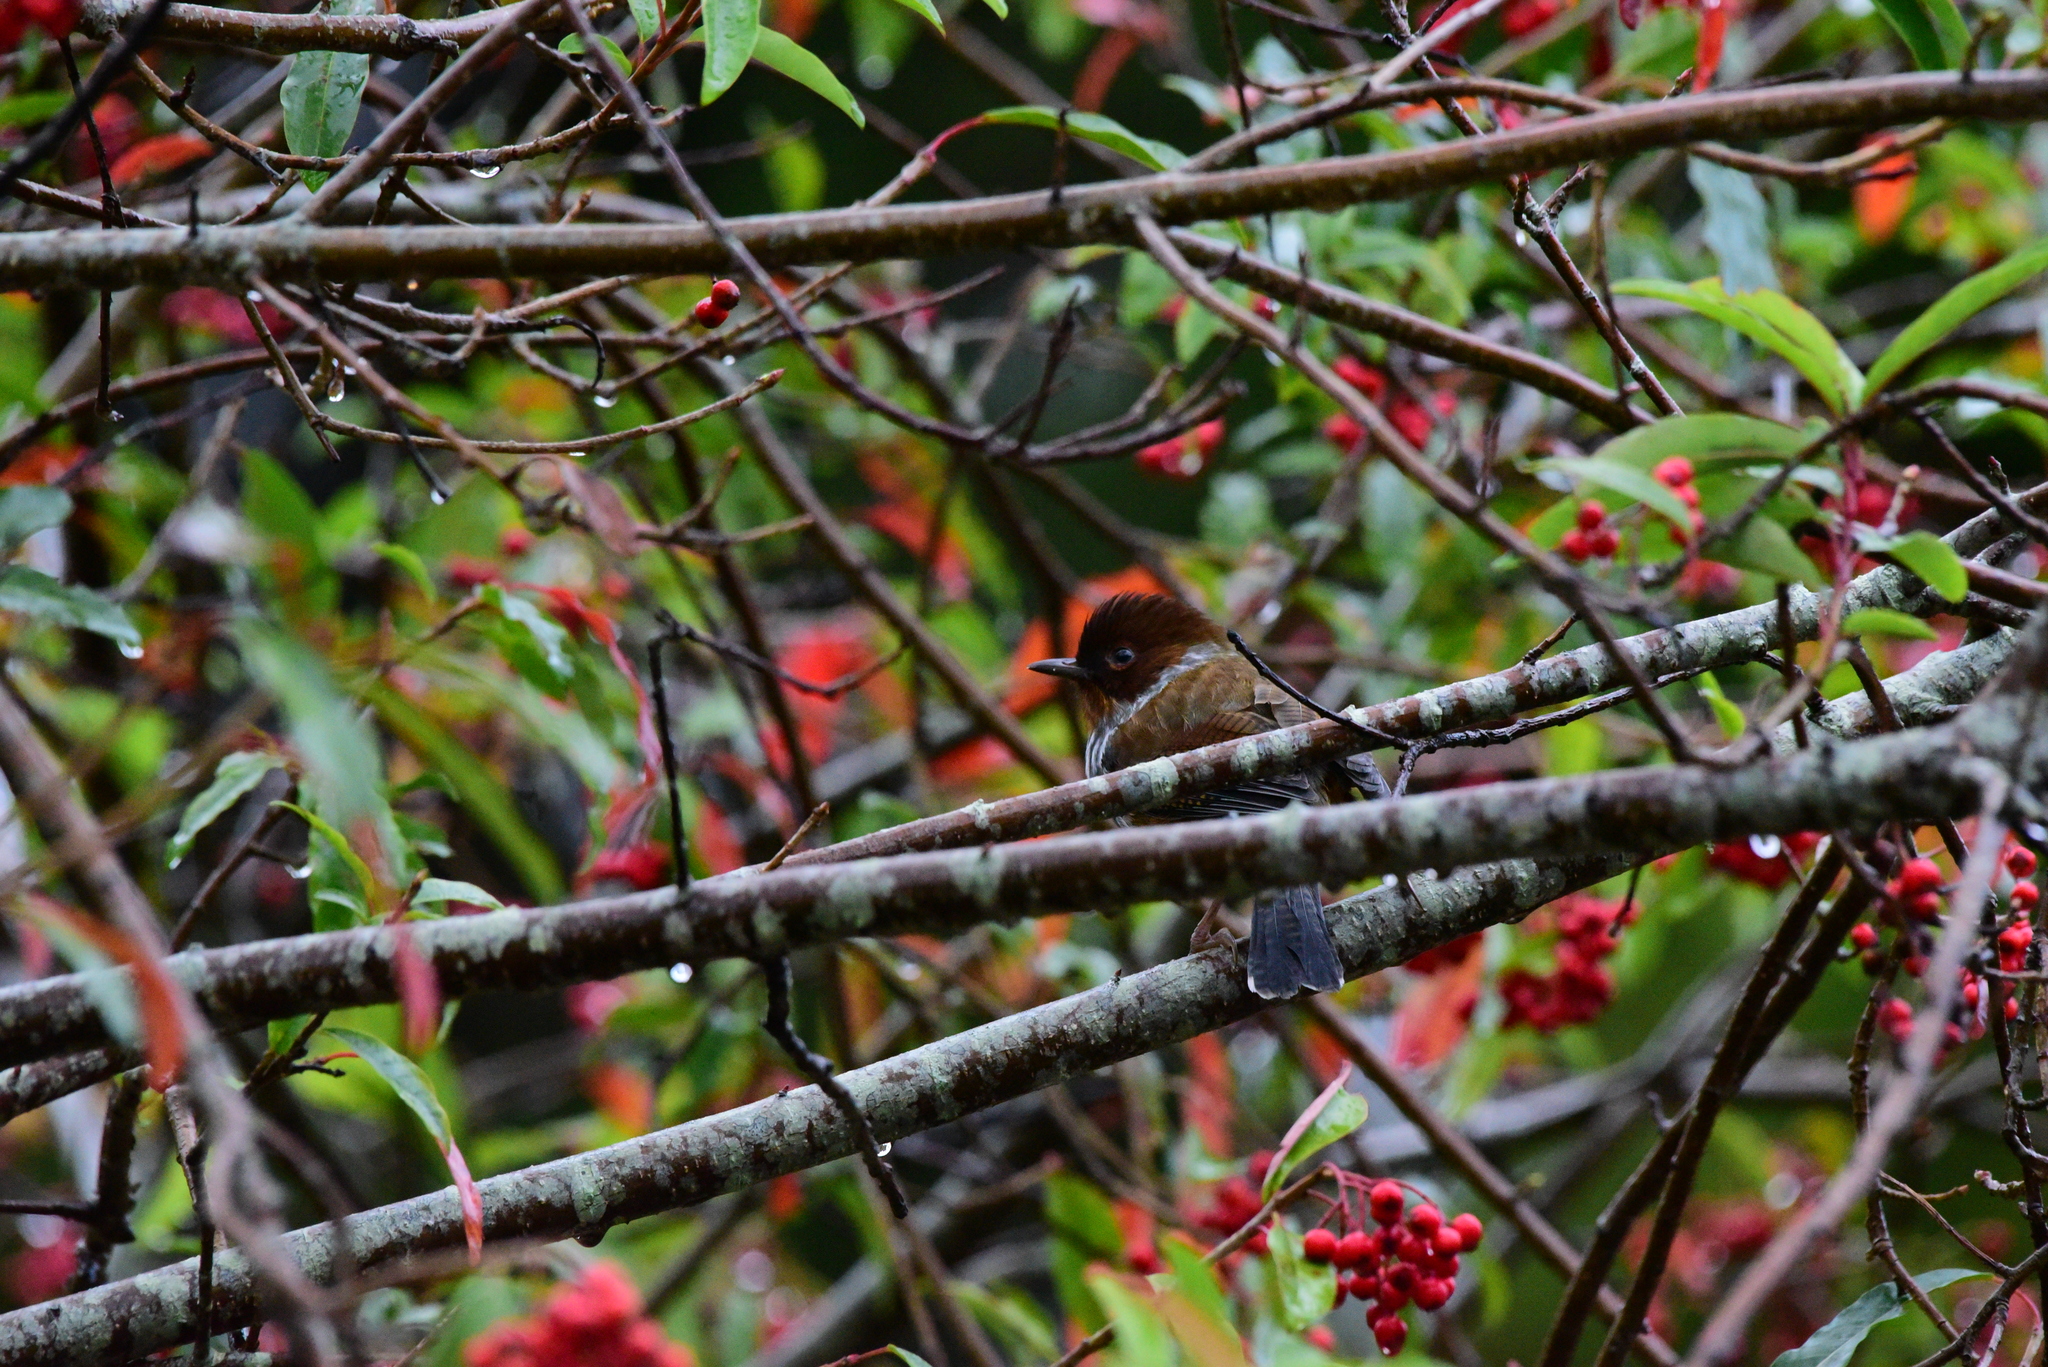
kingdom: Animalia
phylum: Chordata
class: Aves
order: Passeriformes
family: Leiothrichidae
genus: Actinodura
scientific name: Actinodura morrisoniana
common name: Taiwan barwing
